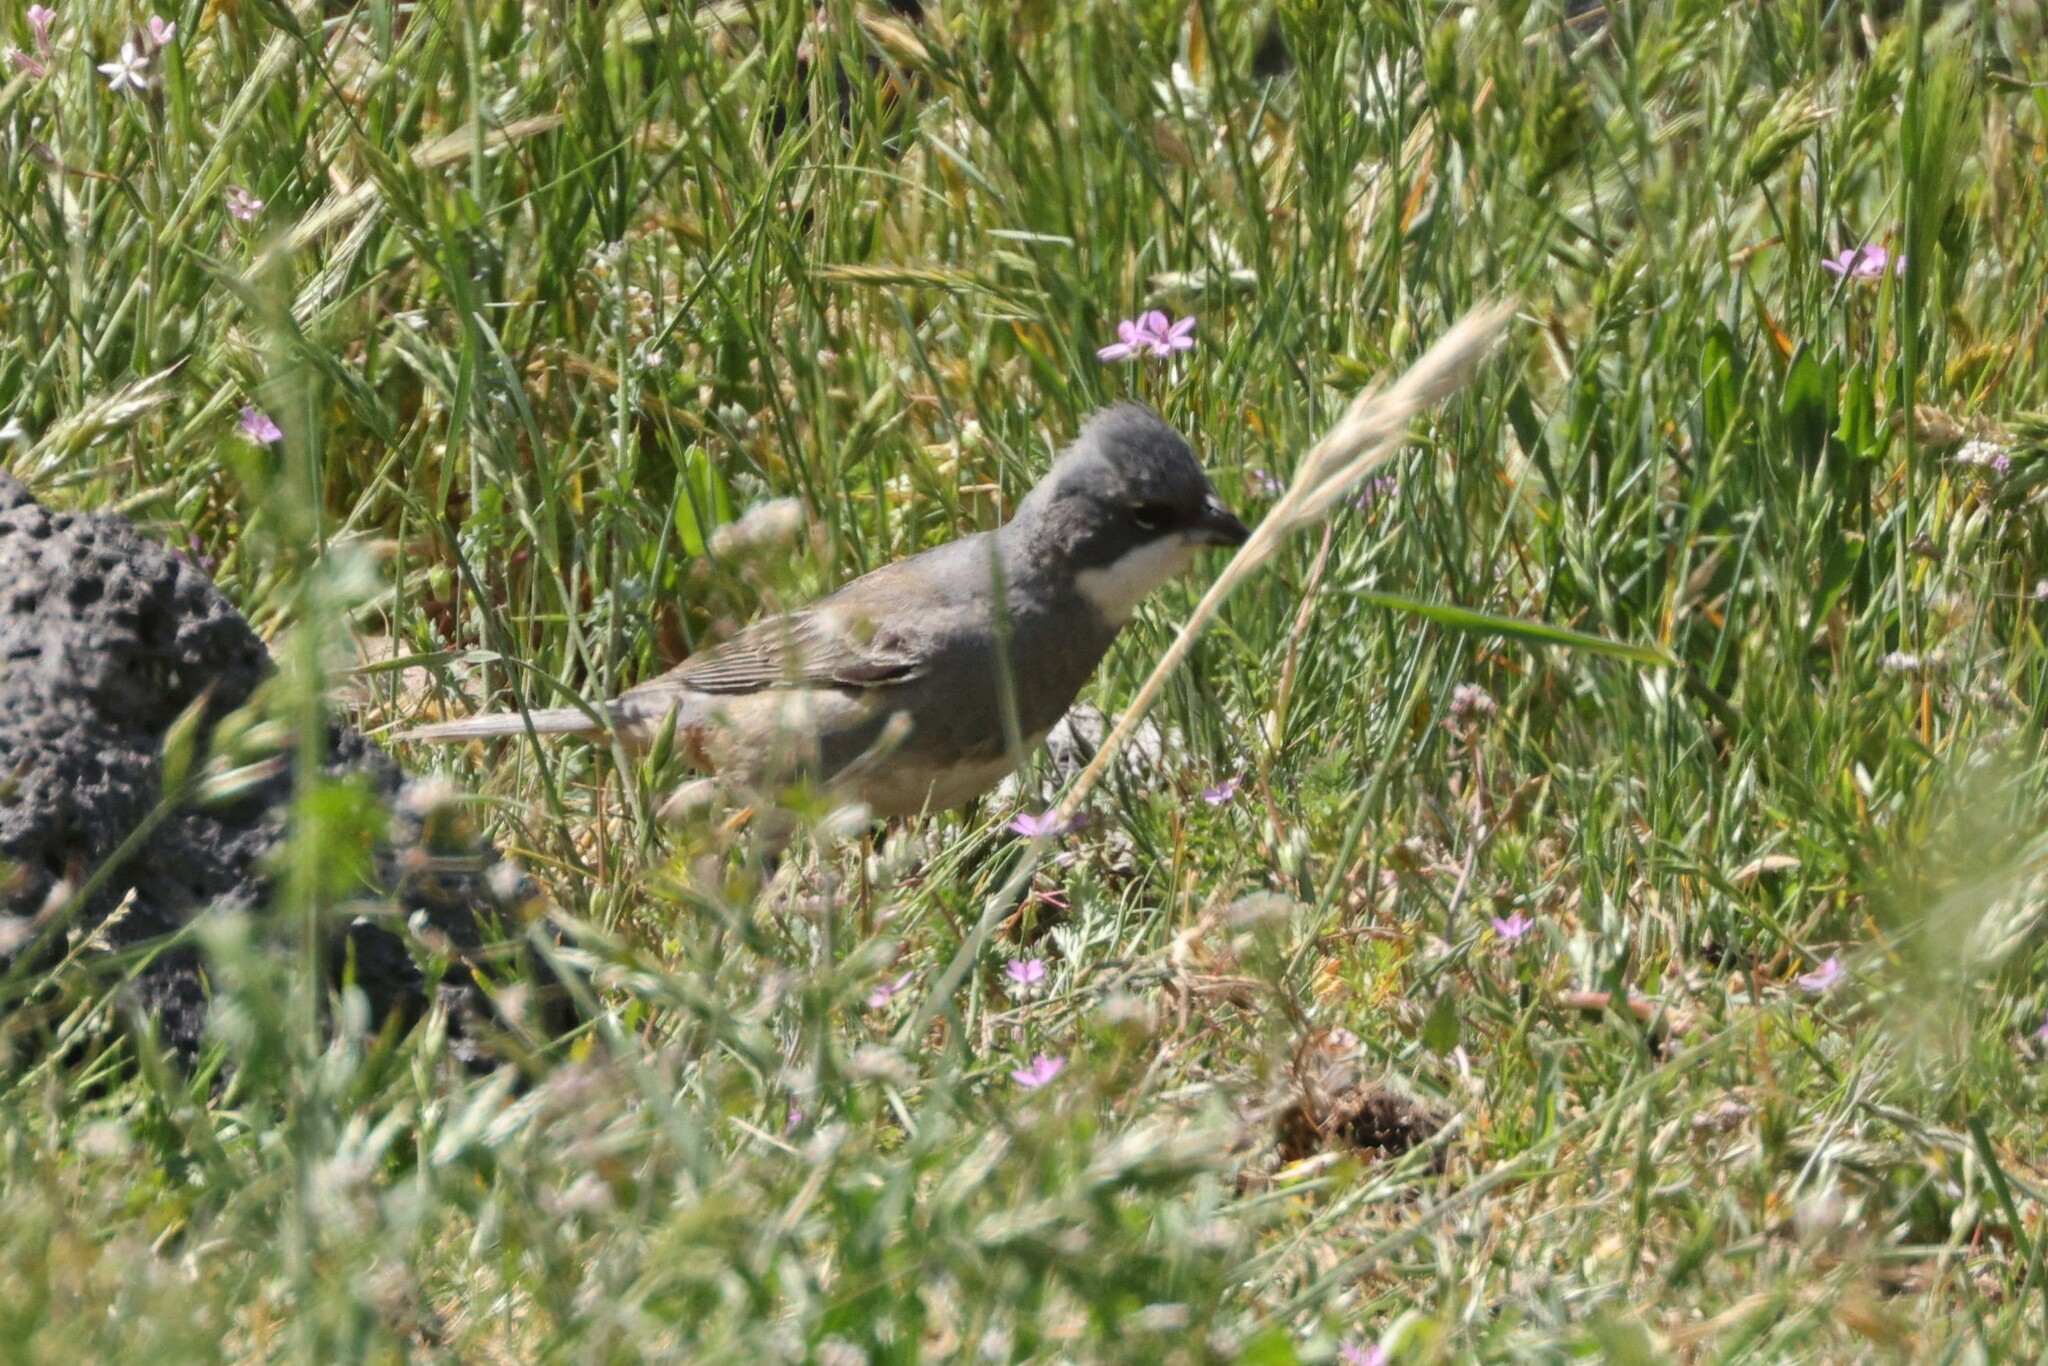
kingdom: Animalia
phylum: Chordata
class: Aves
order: Passeriformes
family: Thraupidae
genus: Diuca
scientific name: Diuca diuca
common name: Common diuca finch
